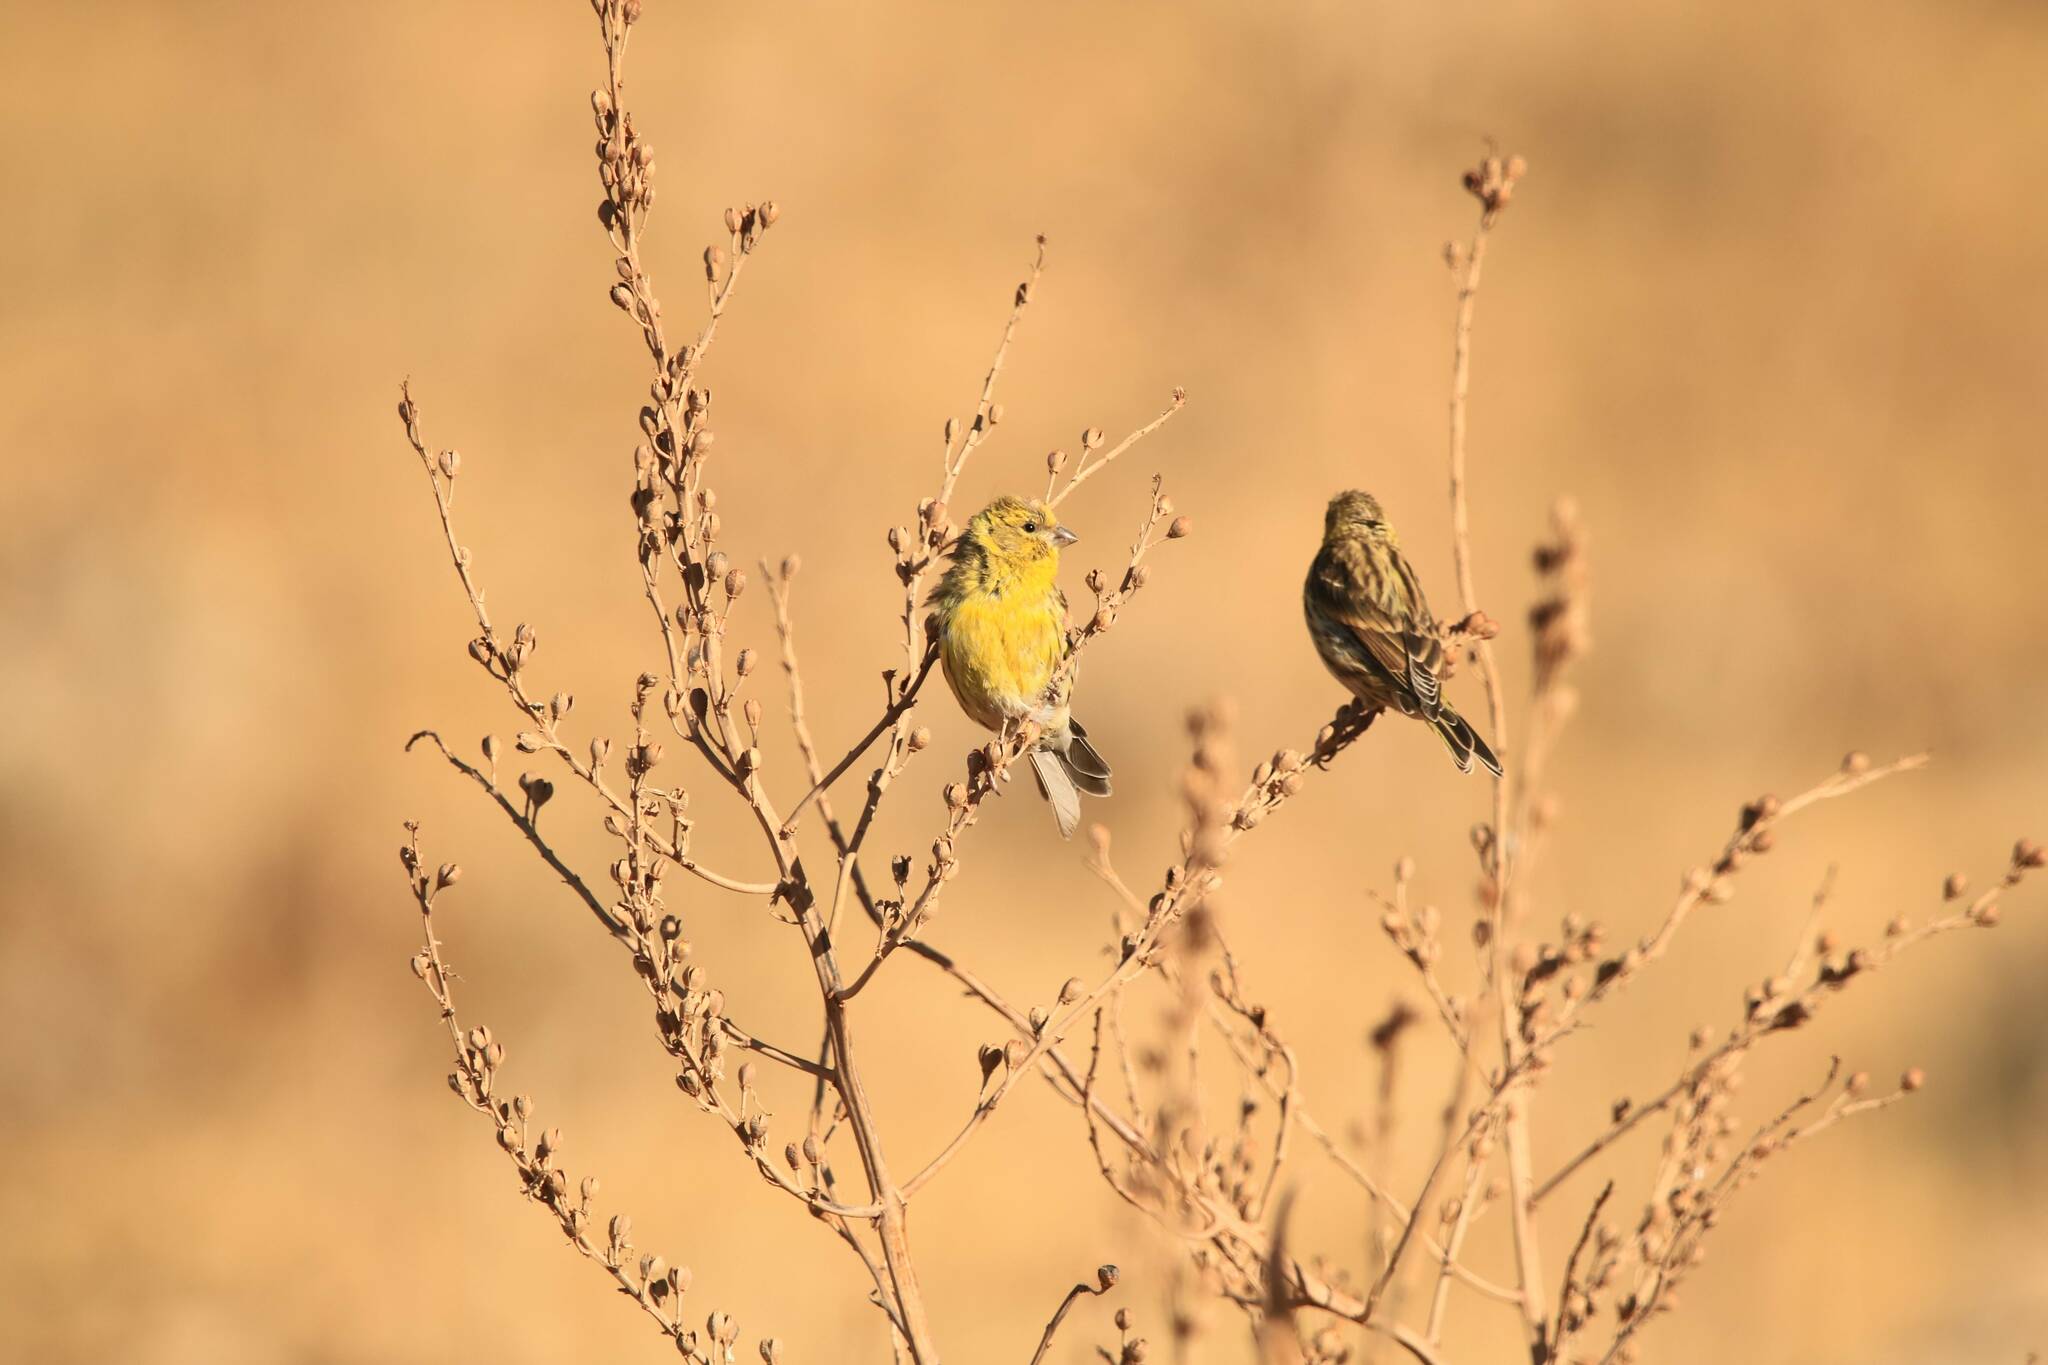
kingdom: Animalia
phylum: Chordata
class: Aves
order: Passeriformes
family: Fringillidae
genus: Serinus
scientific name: Serinus serinus
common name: European serin
